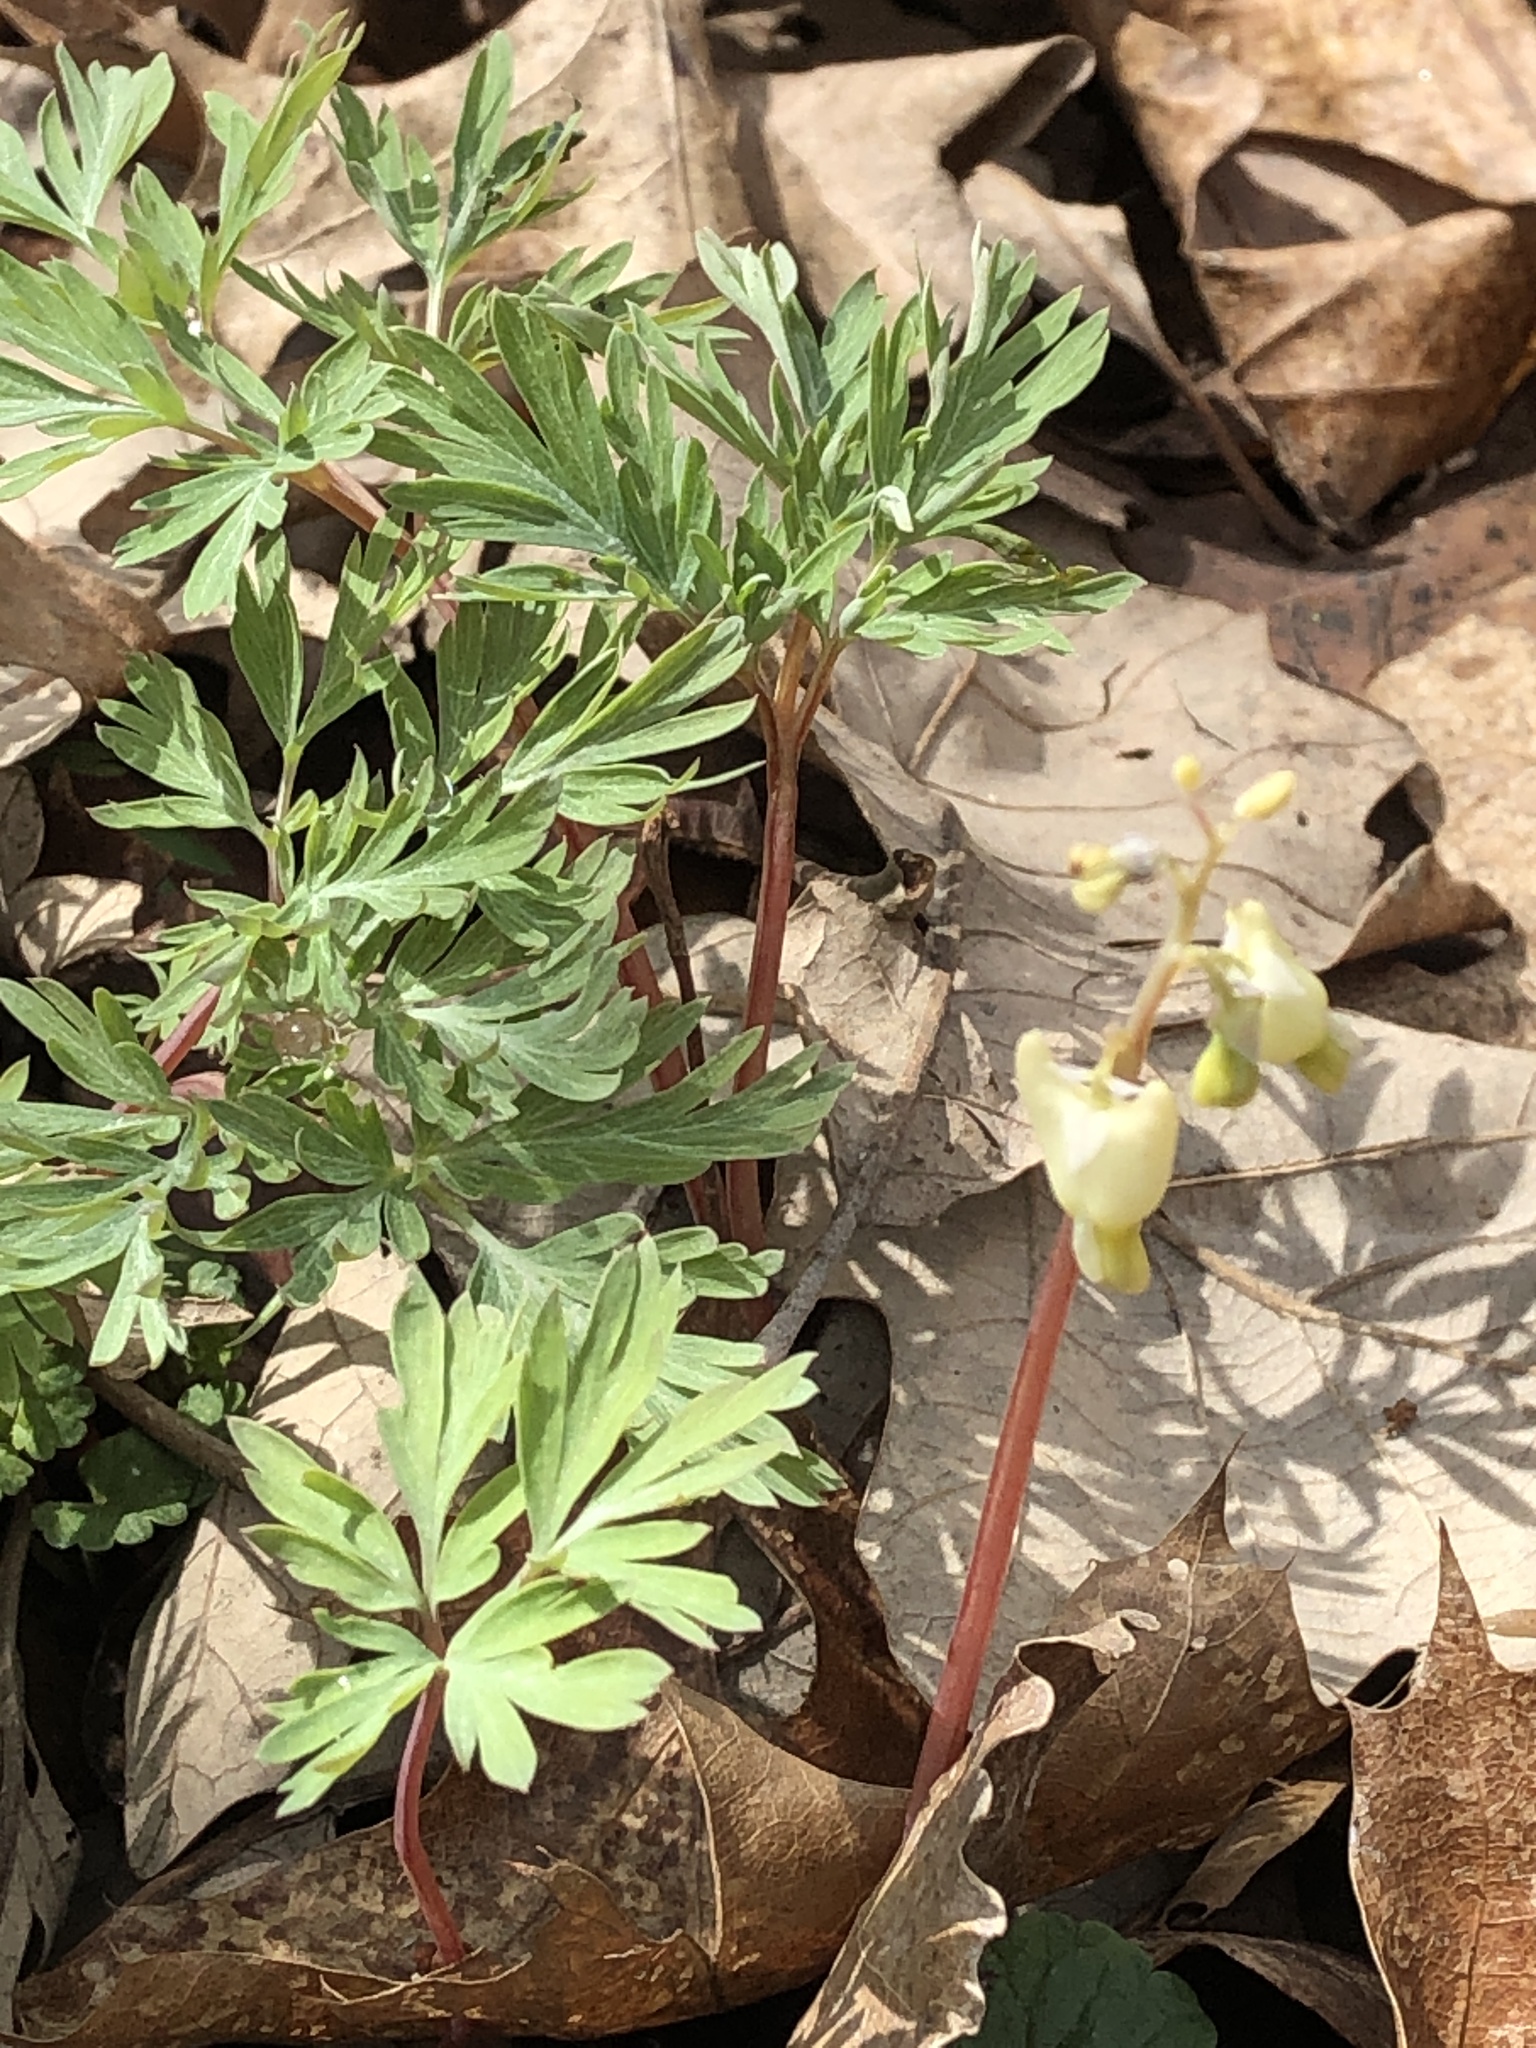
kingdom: Plantae
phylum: Tracheophyta
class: Magnoliopsida
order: Ranunculales
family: Papaveraceae
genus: Dicentra
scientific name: Dicentra cucullaria
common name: Dutchman's breeches
